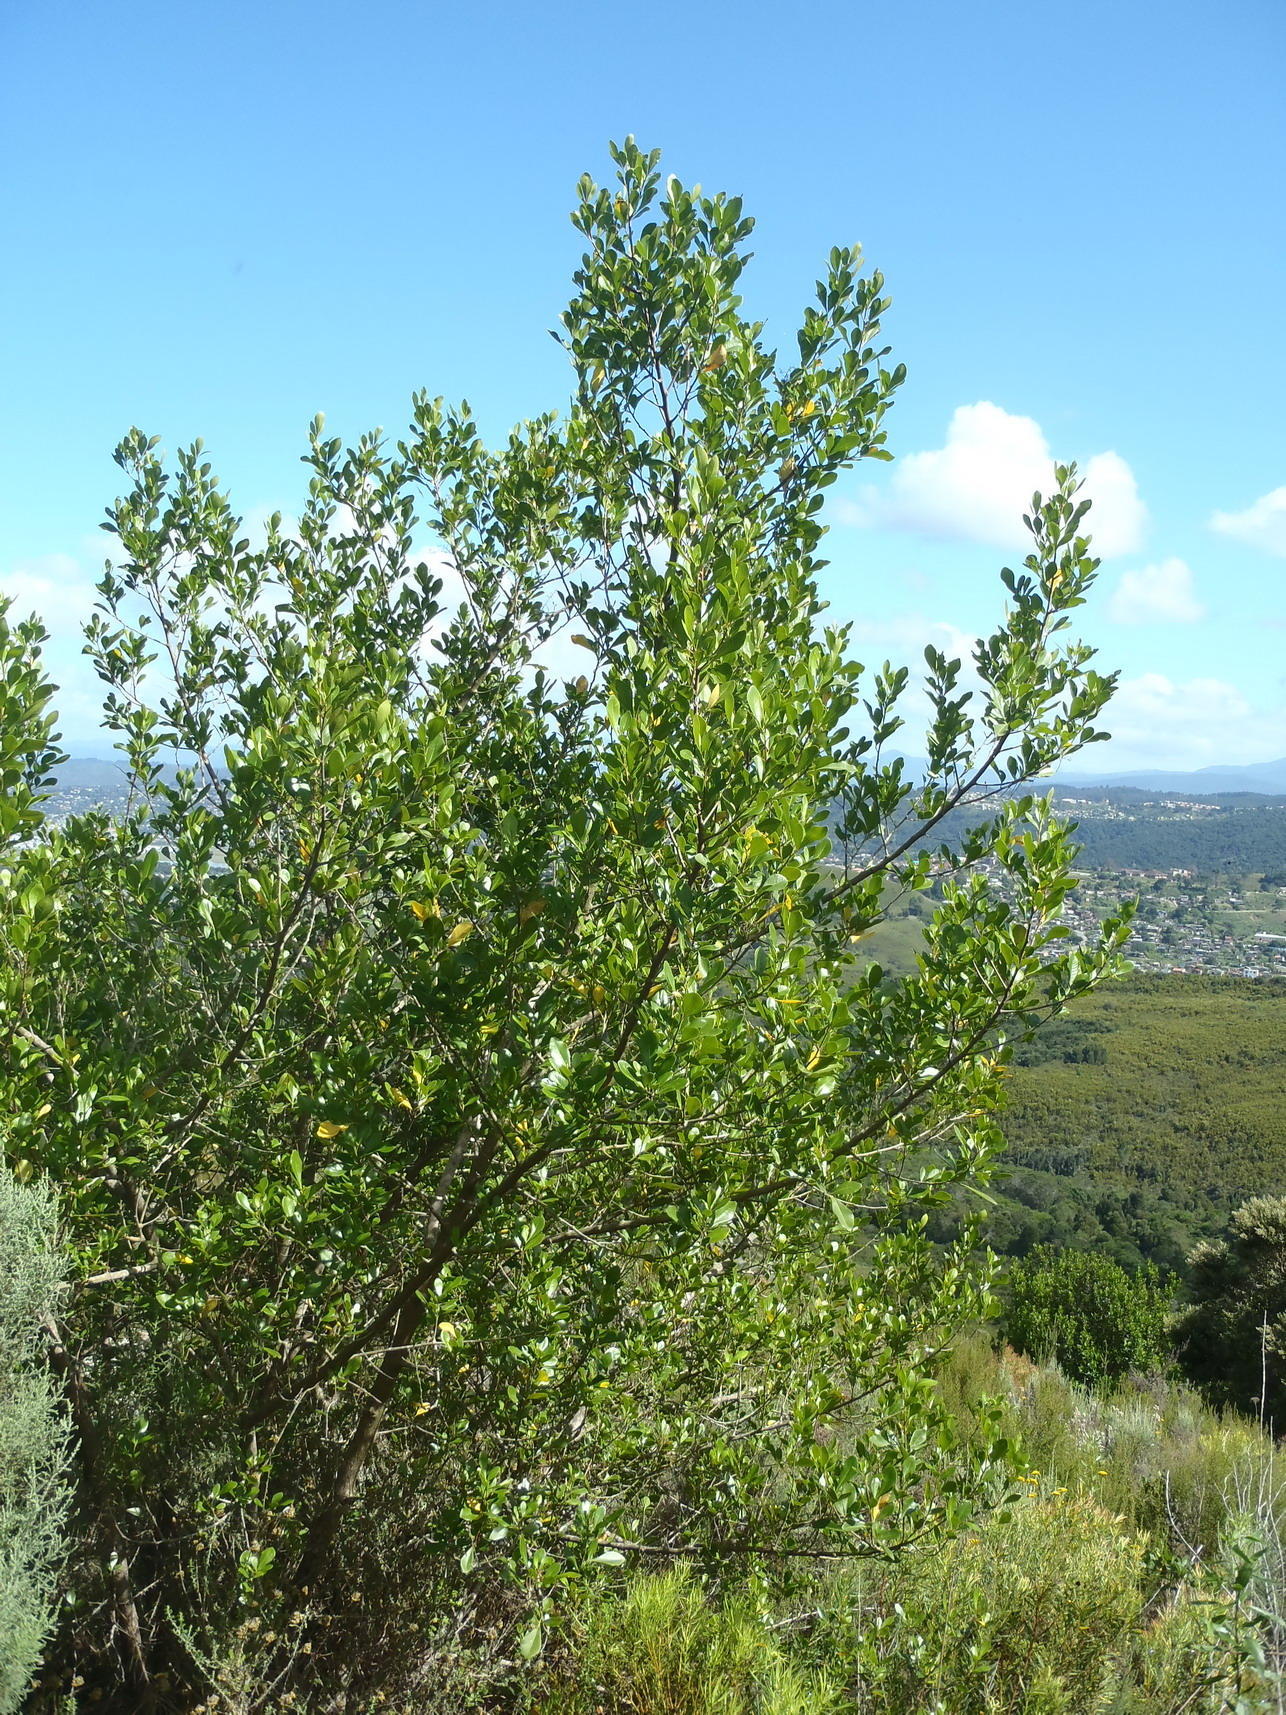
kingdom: Plantae
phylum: Tracheophyta
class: Magnoliopsida
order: Sapindales
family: Anacardiaceae
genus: Searsia
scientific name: Searsia lucida
